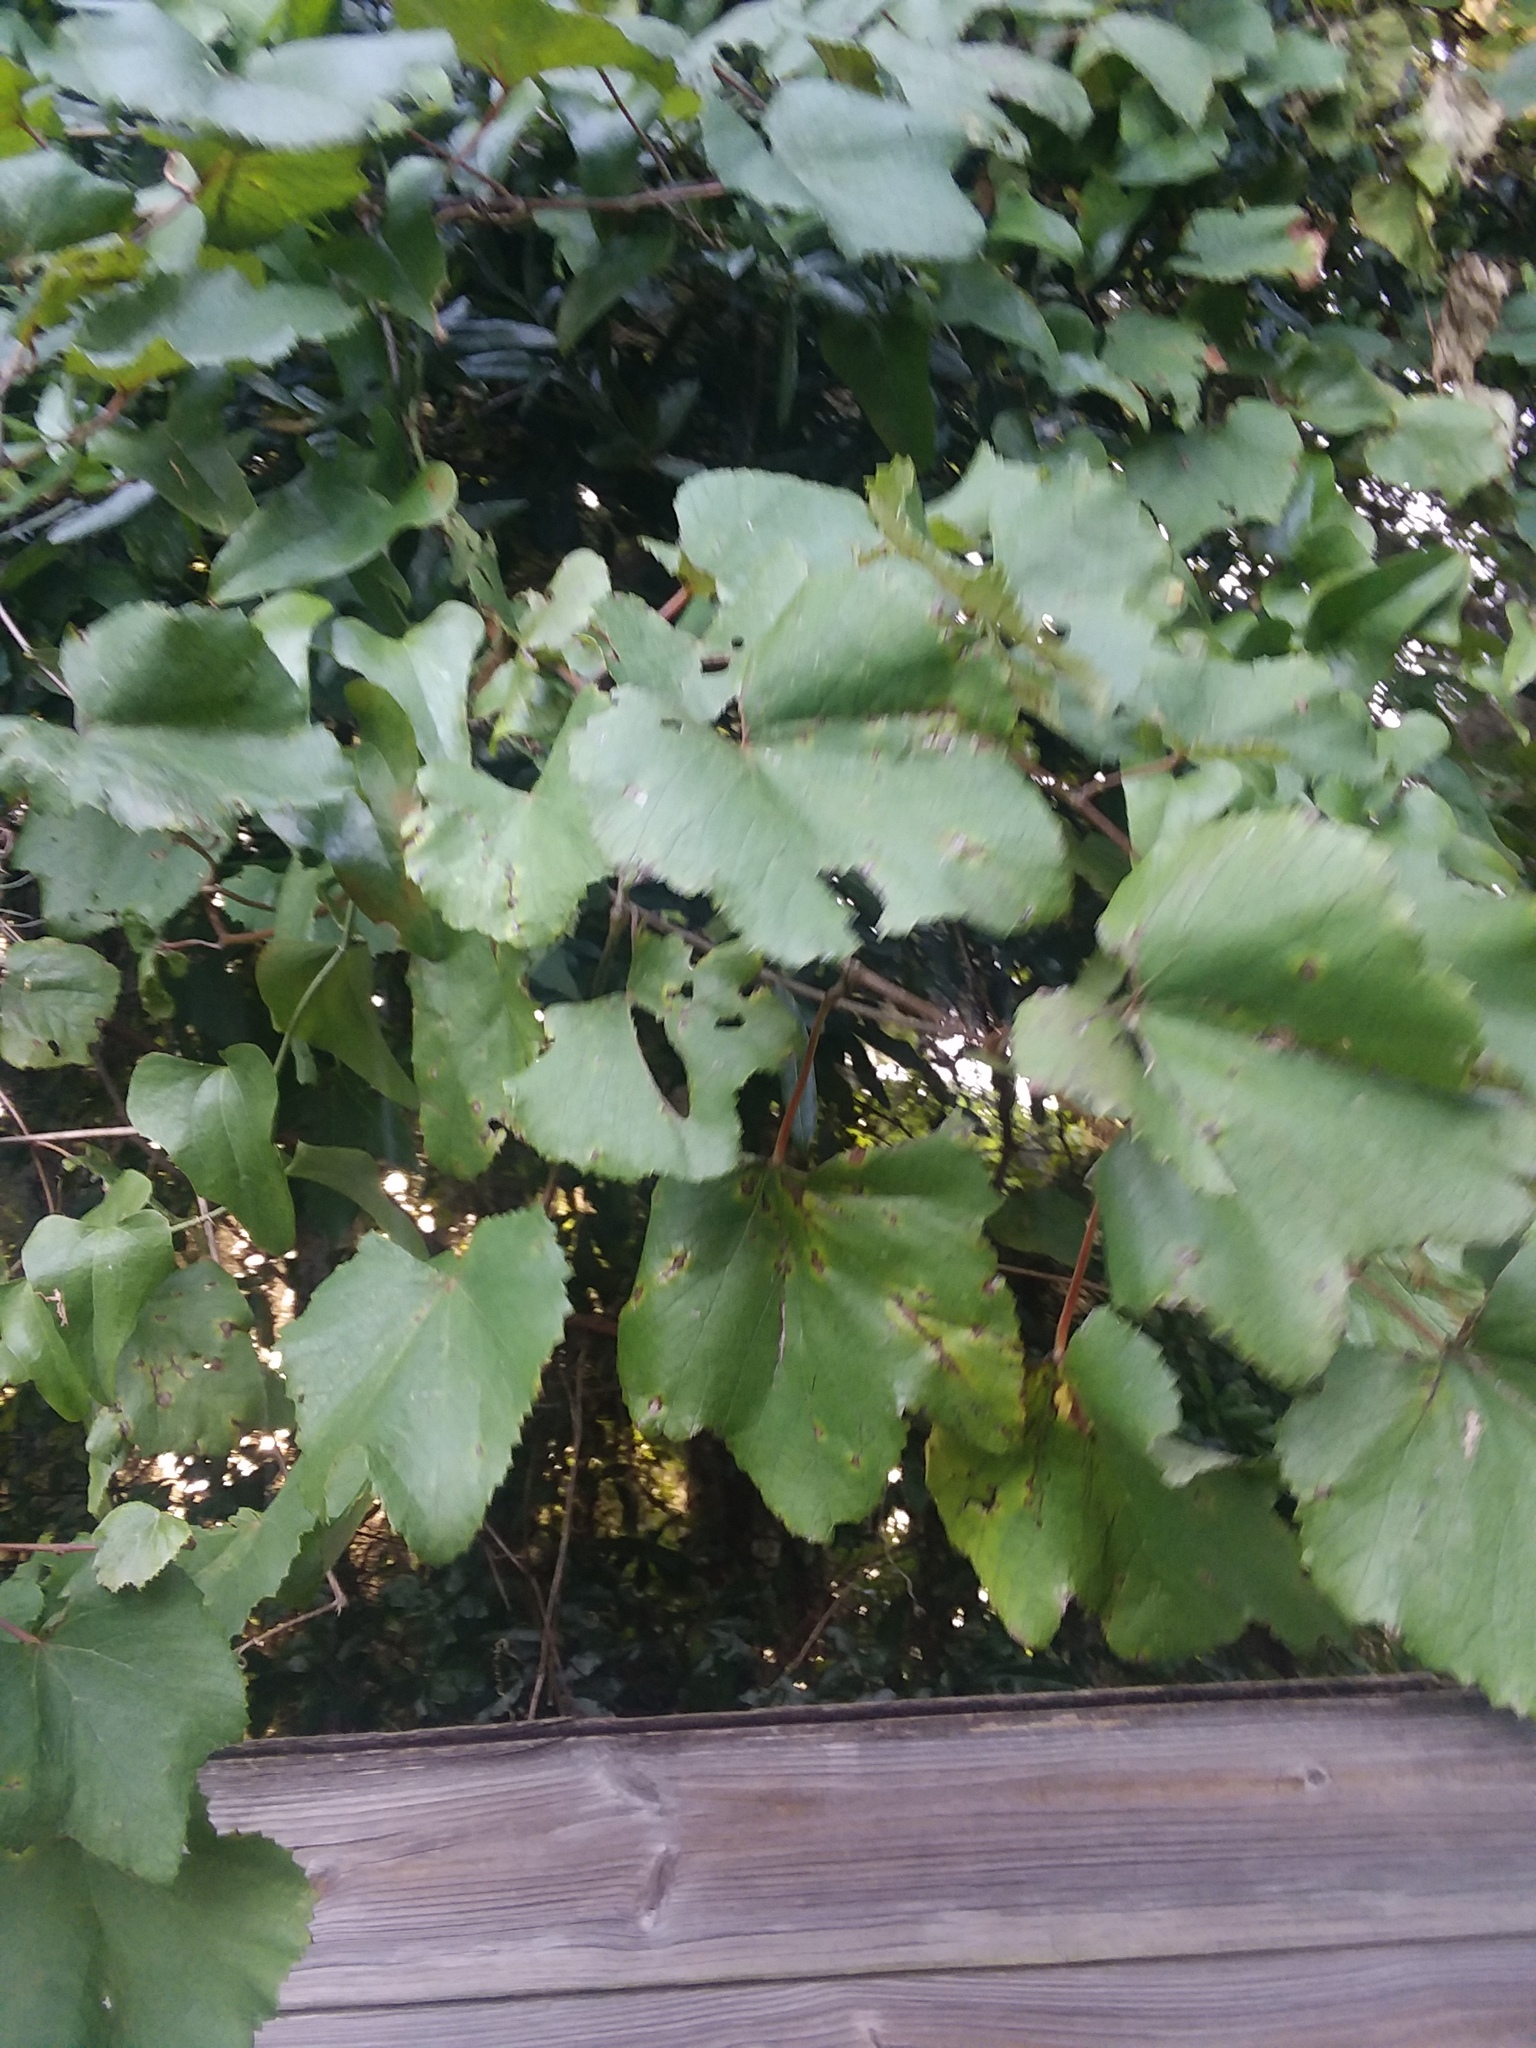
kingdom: Plantae
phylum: Tracheophyta
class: Magnoliopsida
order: Vitales
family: Vitaceae
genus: Vitis
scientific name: Vitis cinerea
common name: Ashy grape
